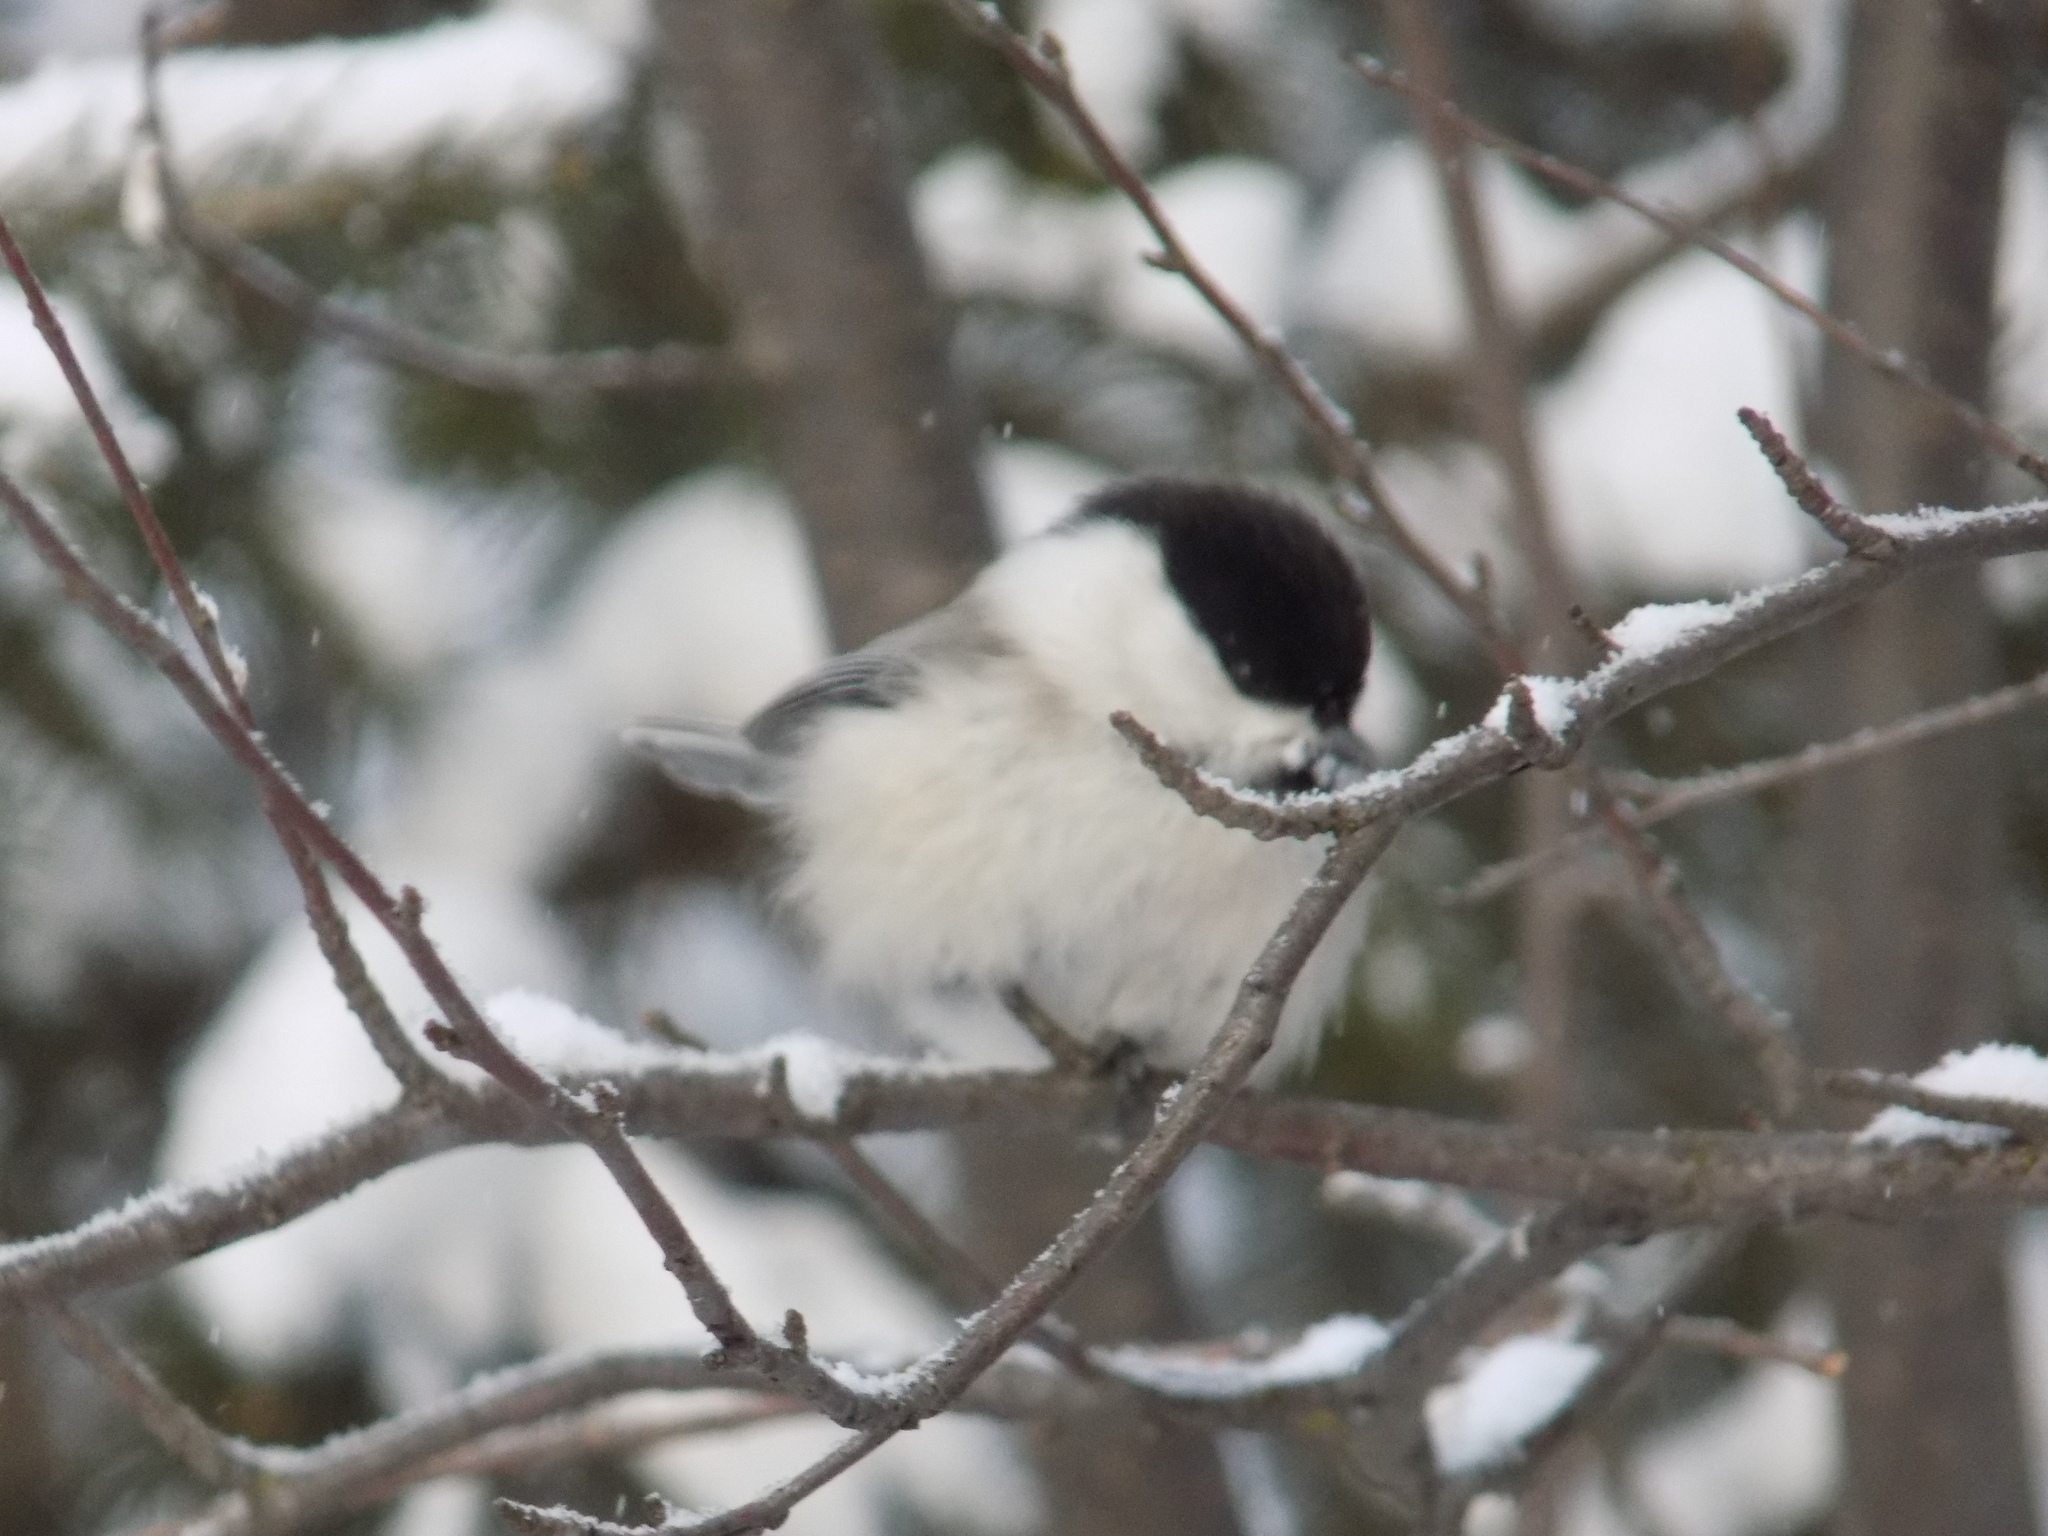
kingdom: Animalia
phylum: Chordata
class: Aves
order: Passeriformes
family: Paridae
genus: Poecile
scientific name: Poecile montanus
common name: Willow tit
